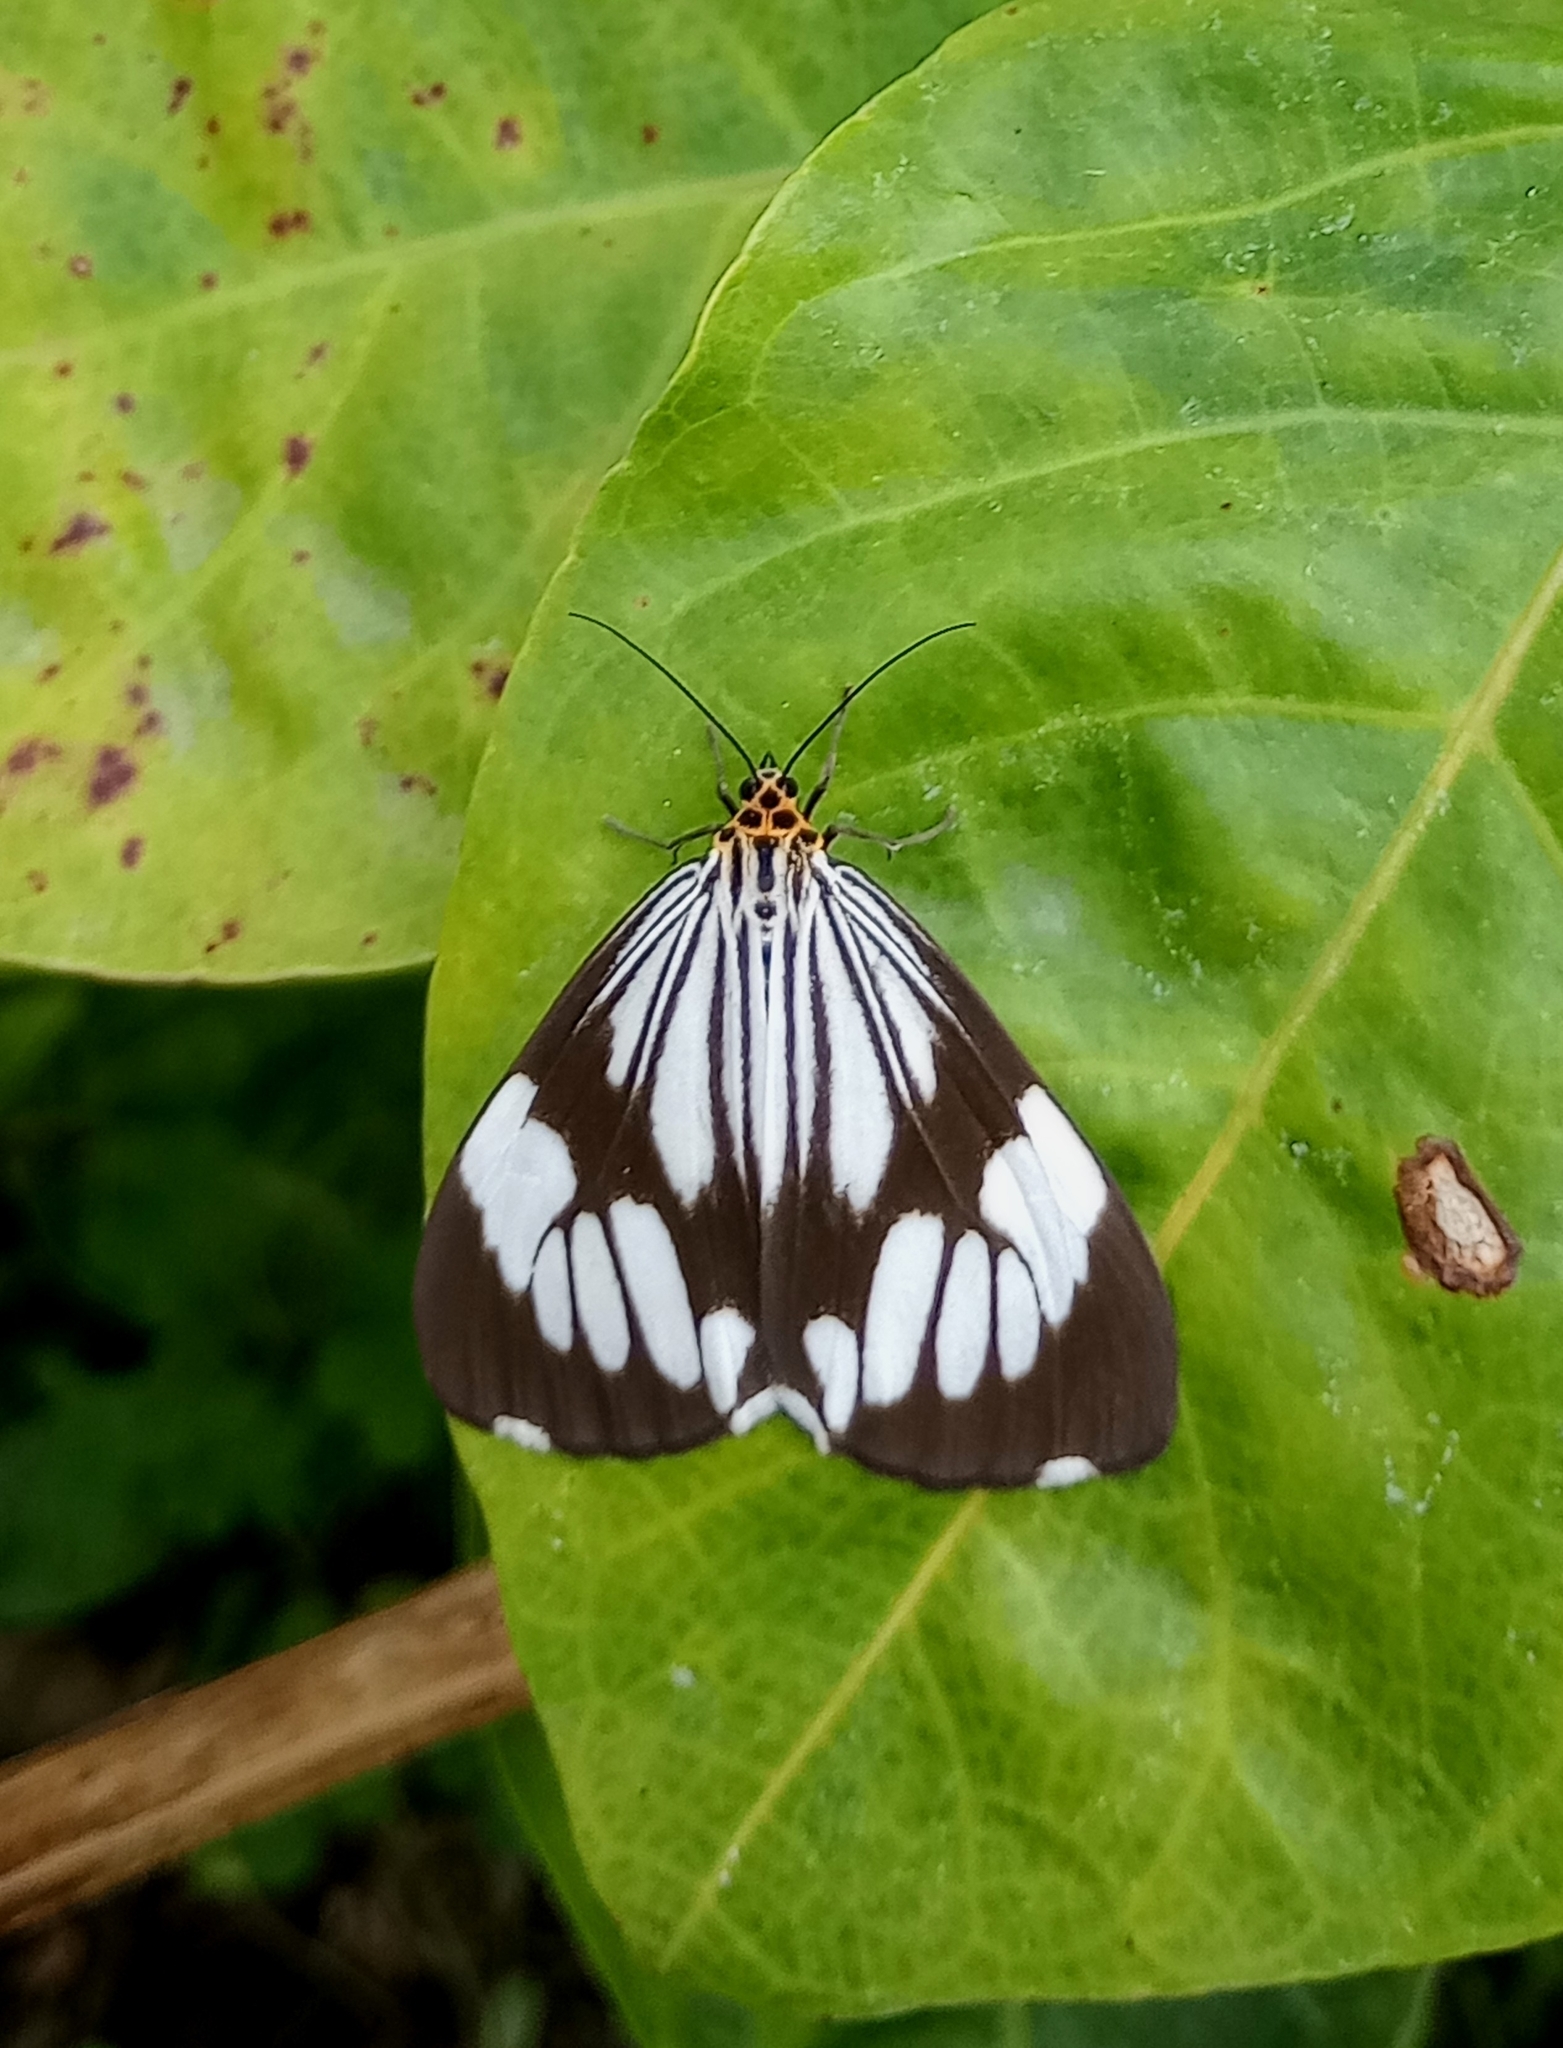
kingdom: Animalia
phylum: Arthropoda
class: Insecta
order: Lepidoptera
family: Erebidae
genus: Nyctemera
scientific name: Nyctemera coleta
